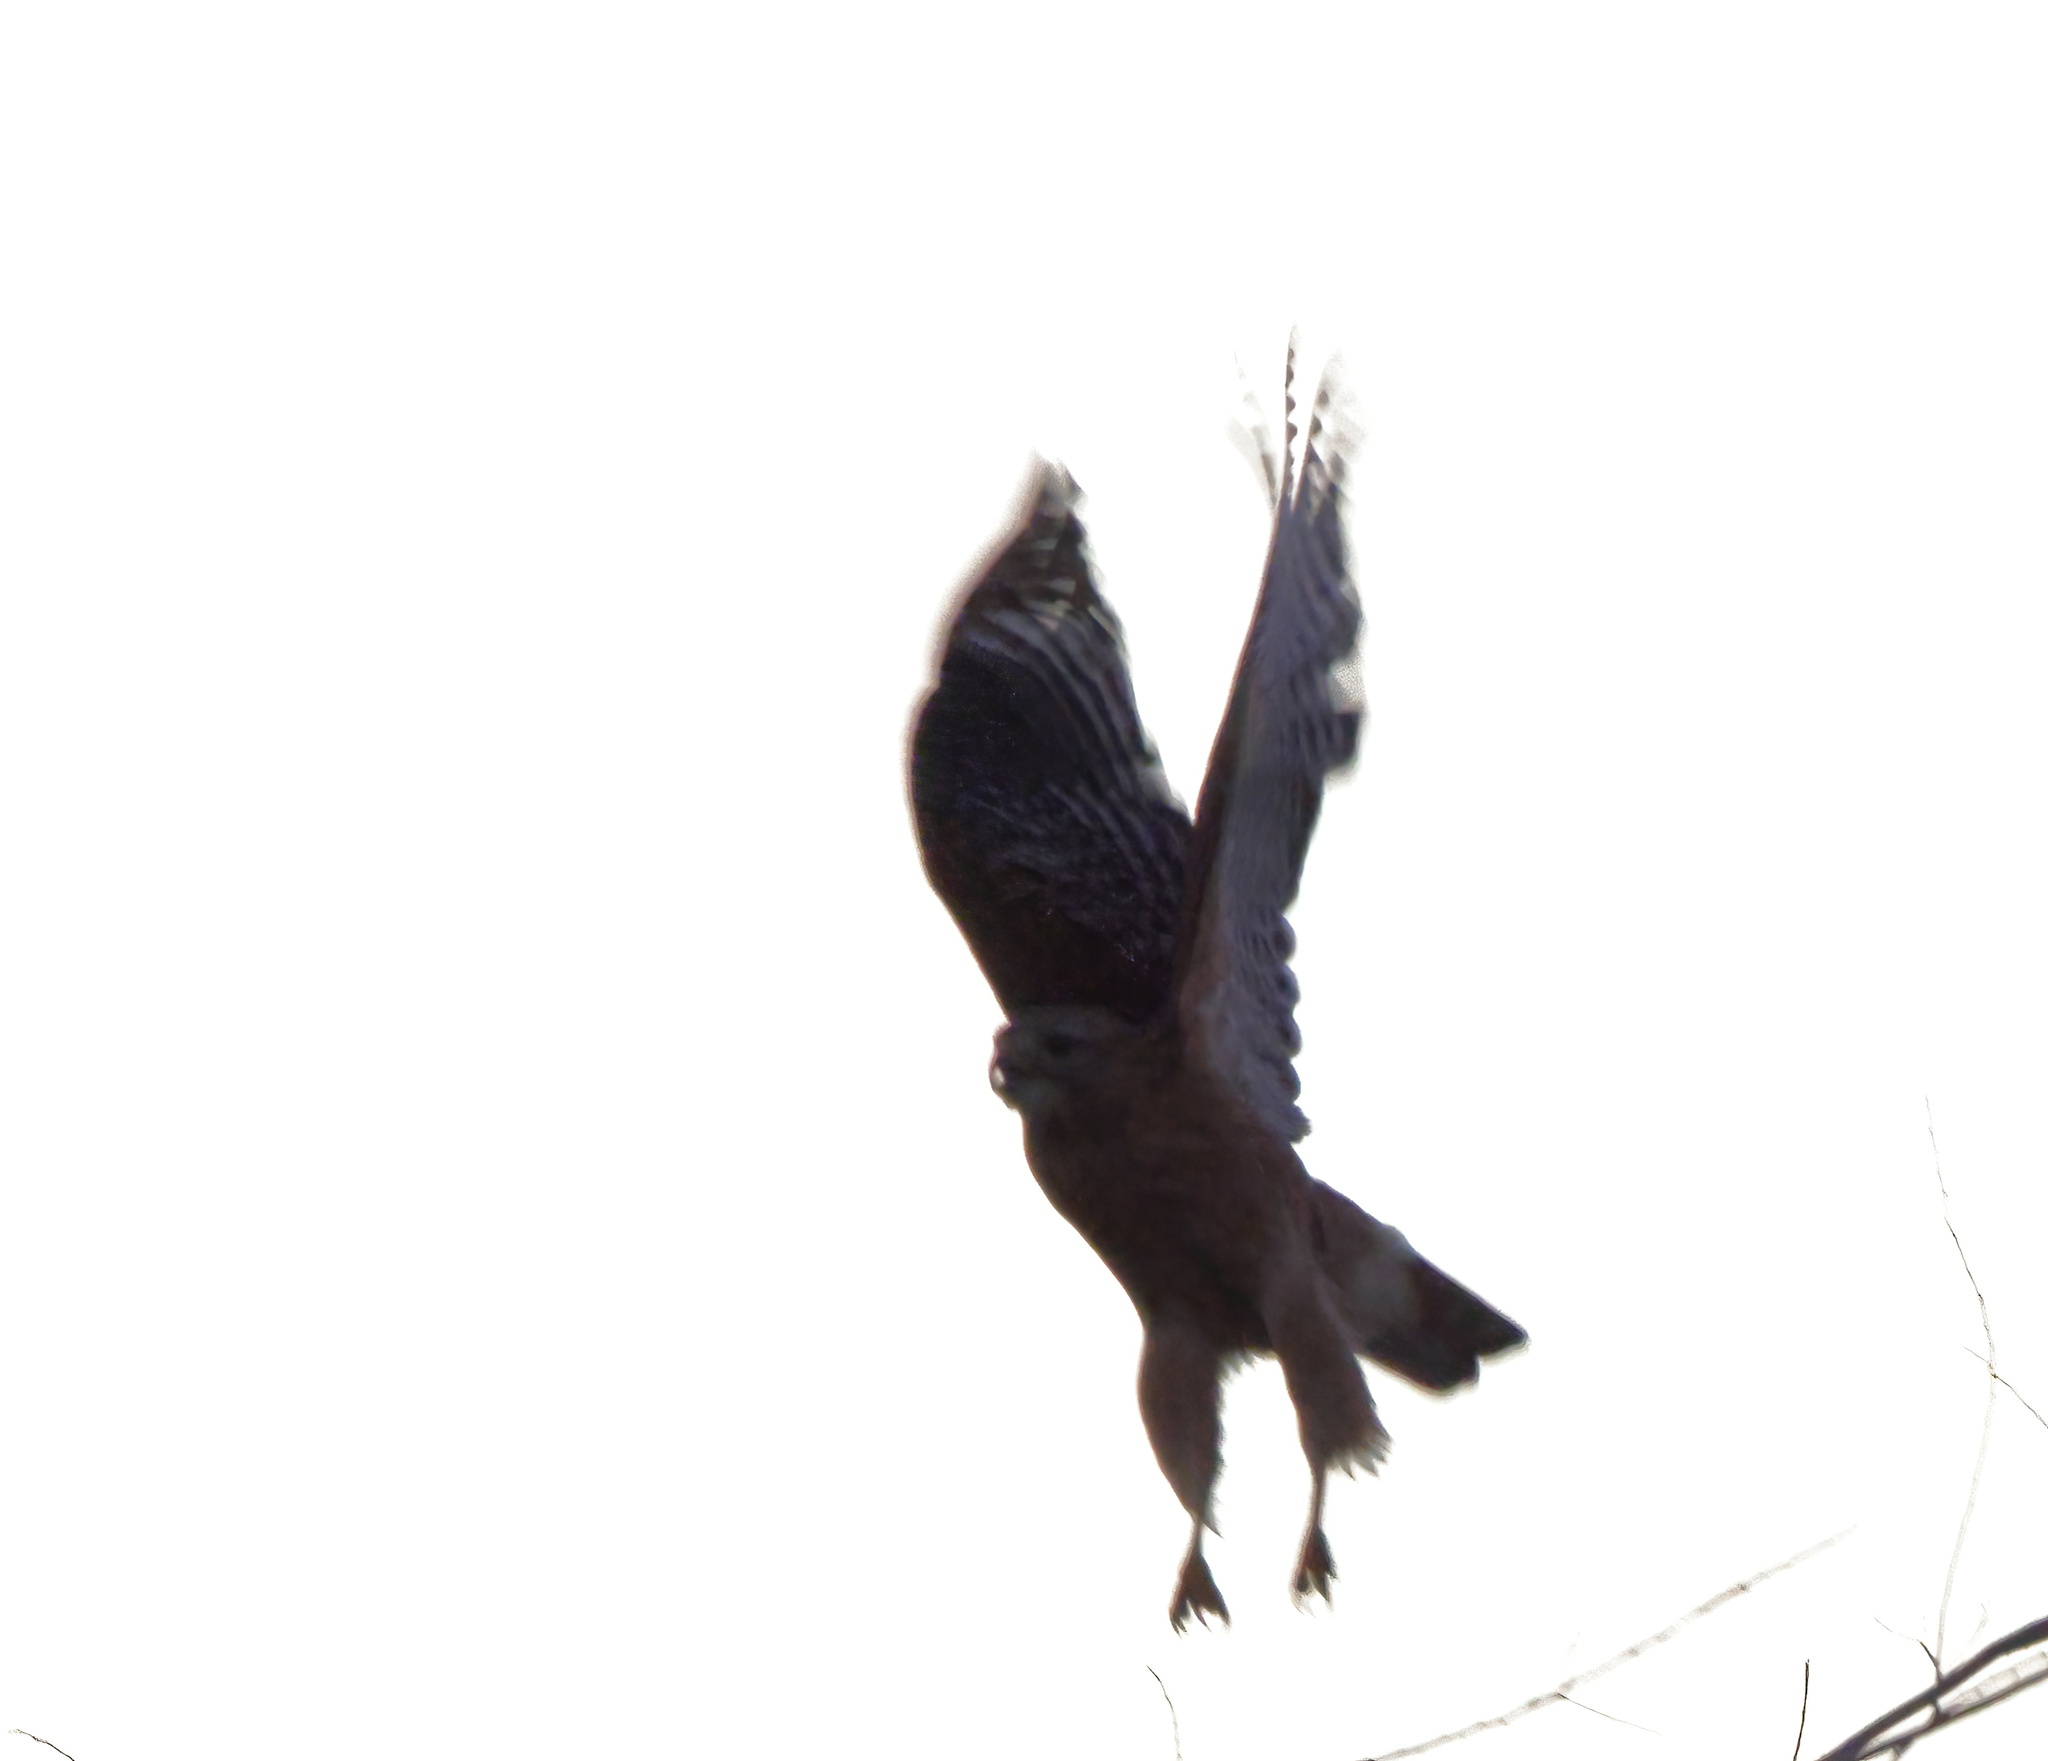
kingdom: Animalia
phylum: Chordata
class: Aves
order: Accipitriformes
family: Accipitridae
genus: Buteo
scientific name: Buteo lineatus
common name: Red-shouldered hawk
